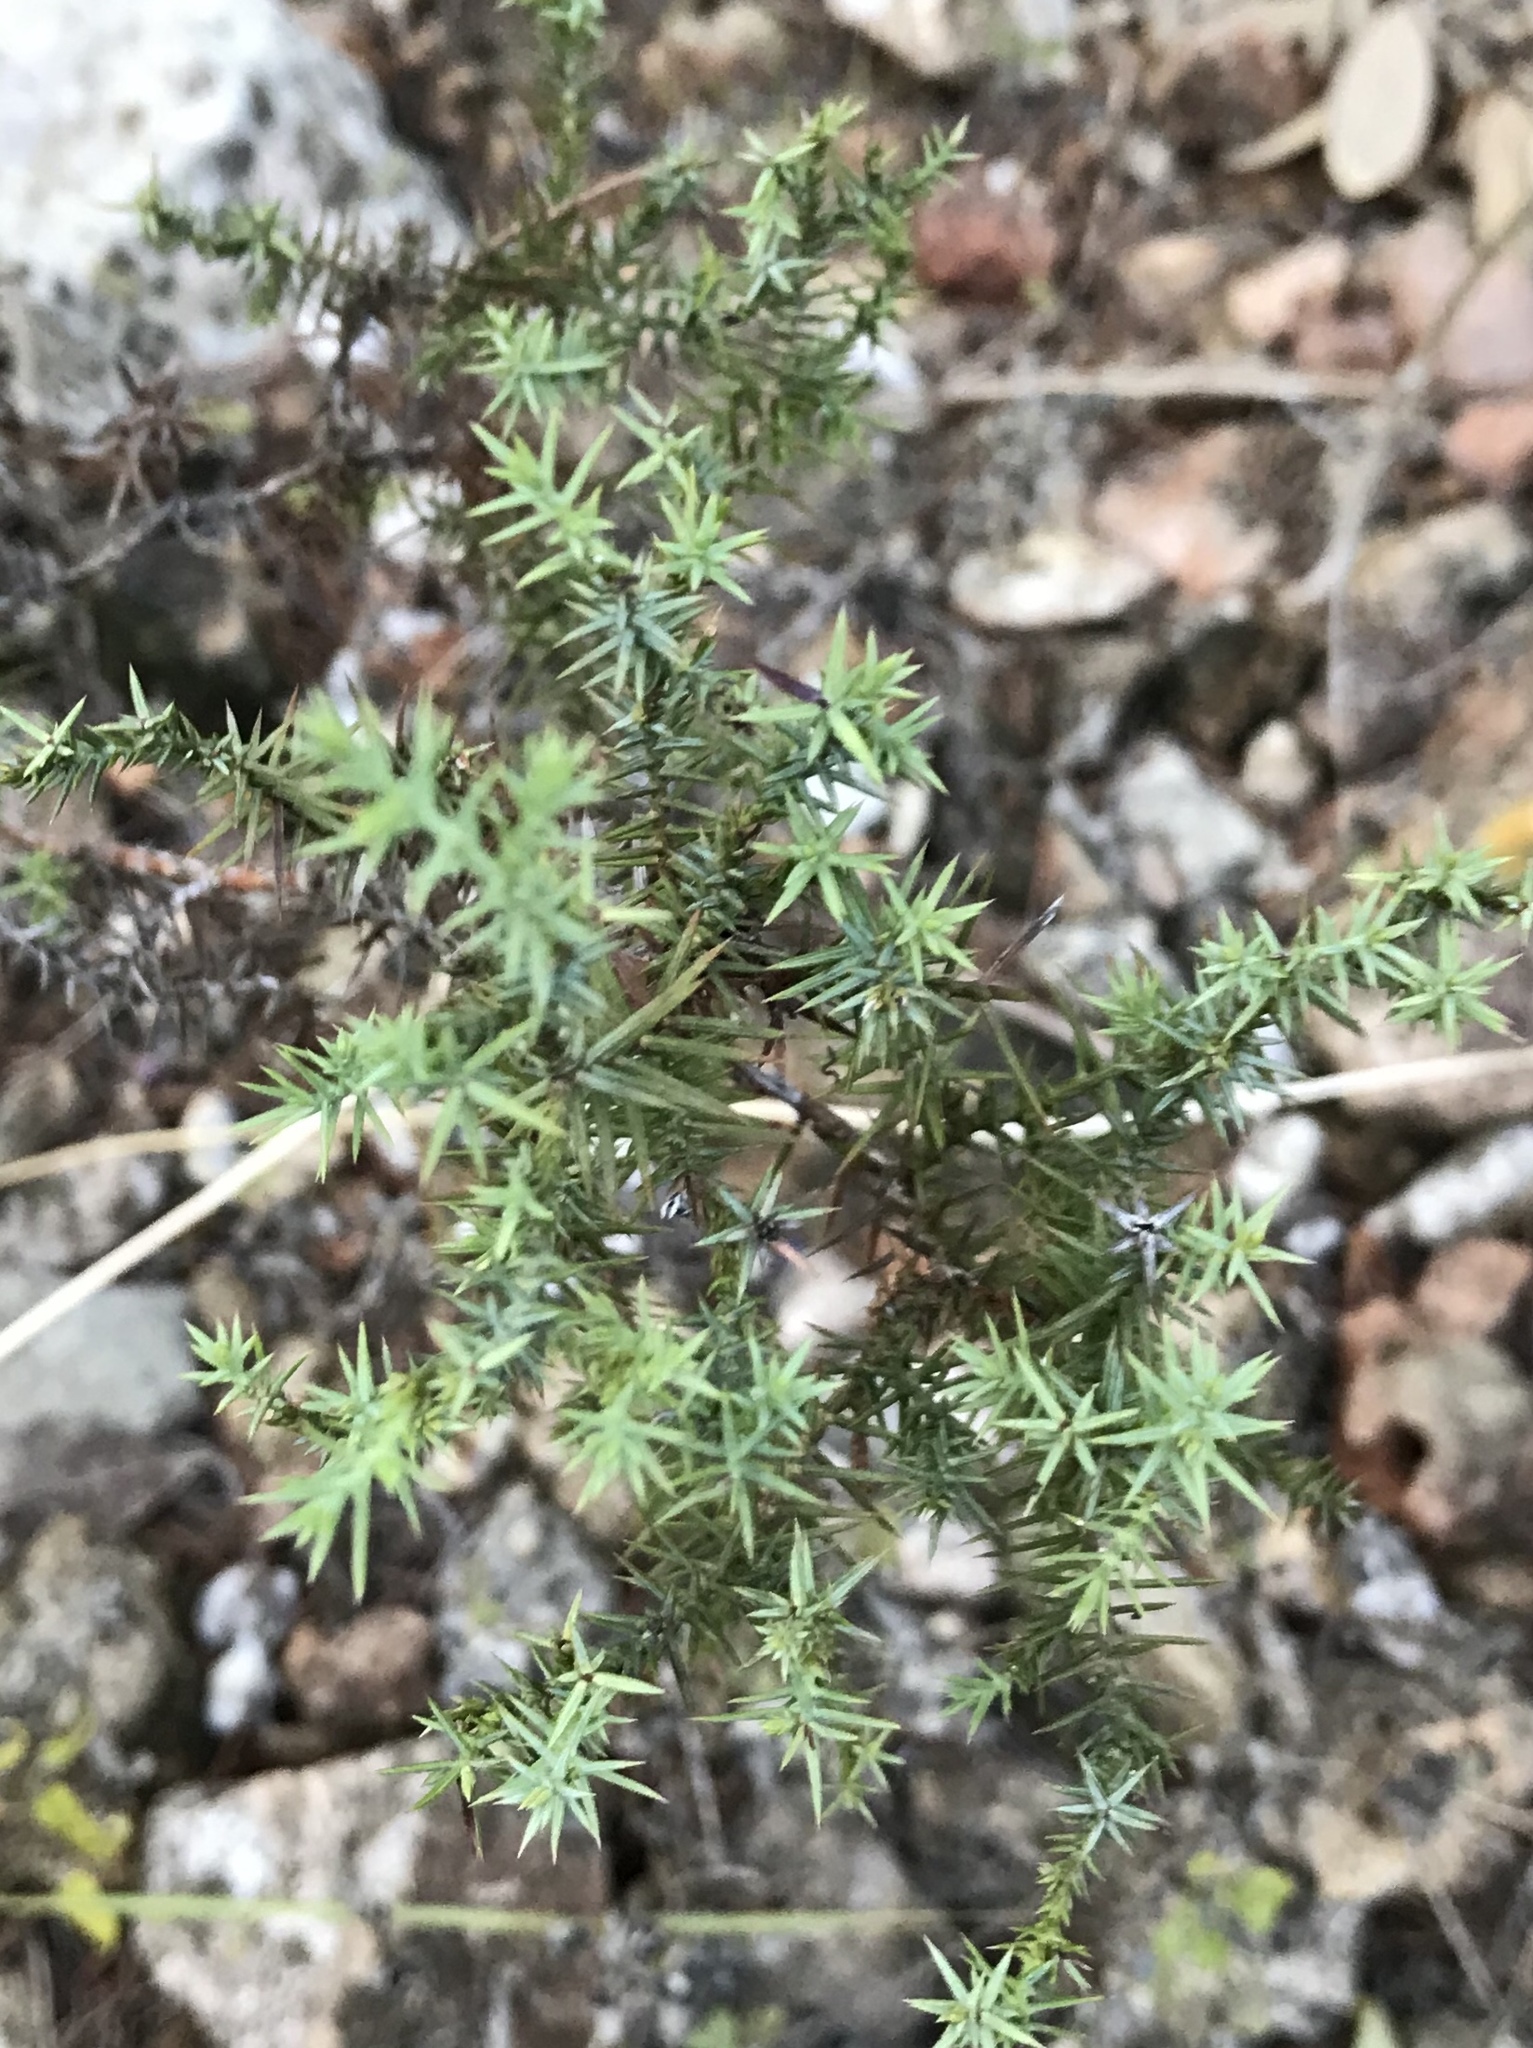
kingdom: Plantae
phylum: Tracheophyta
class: Pinopsida
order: Pinales
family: Cupressaceae
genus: Juniperus
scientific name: Juniperus ashei
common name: Mexican juniper
